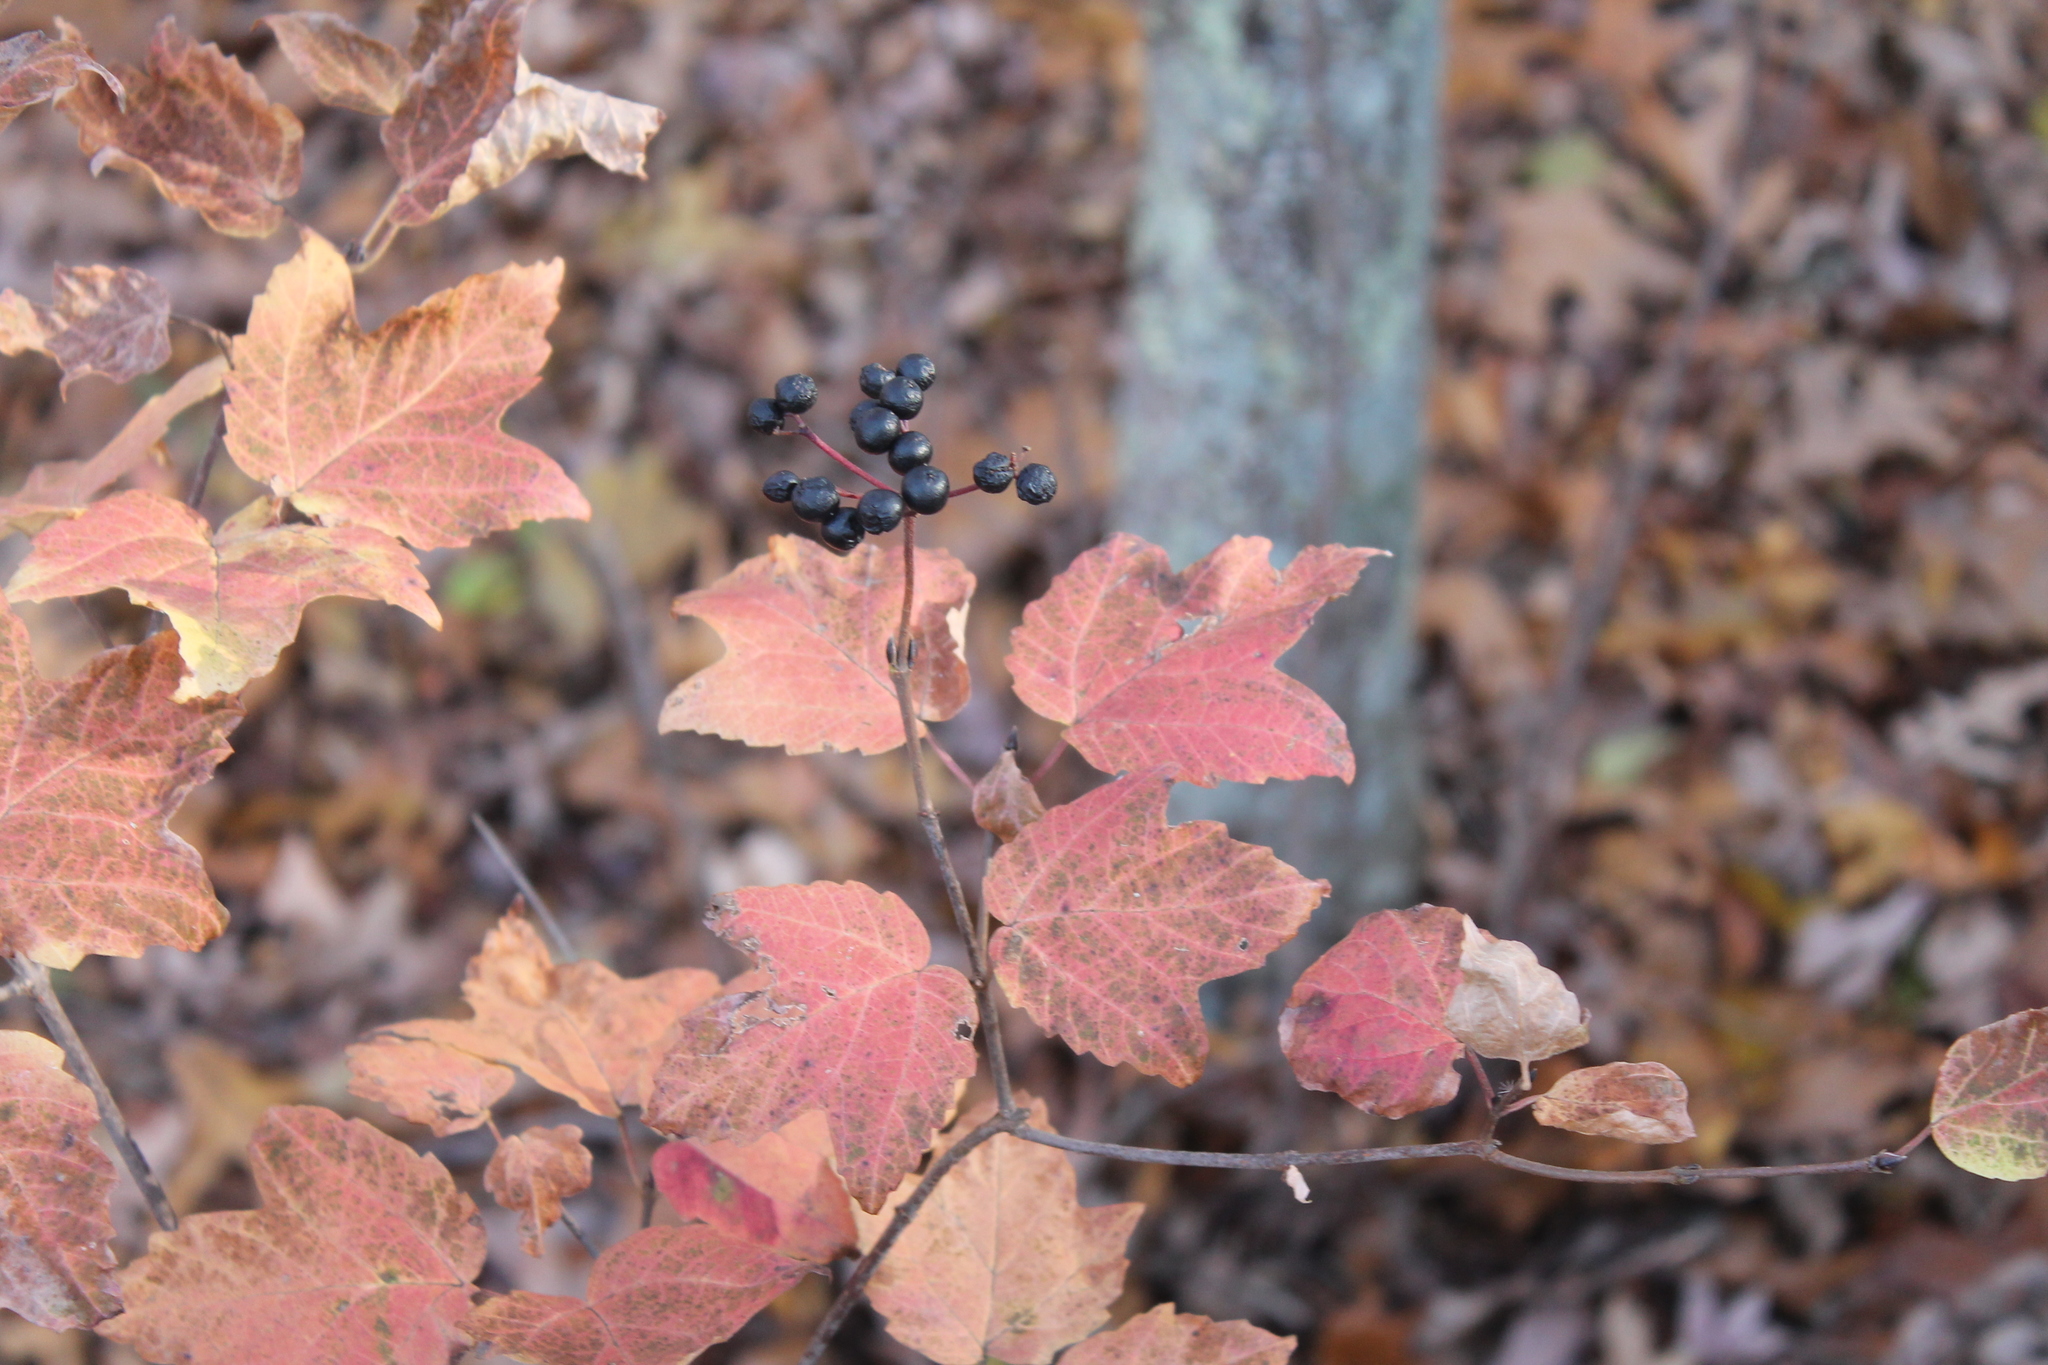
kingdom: Plantae
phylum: Tracheophyta
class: Magnoliopsida
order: Dipsacales
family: Viburnaceae
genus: Viburnum
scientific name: Viburnum acerifolium
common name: Dockmackie
